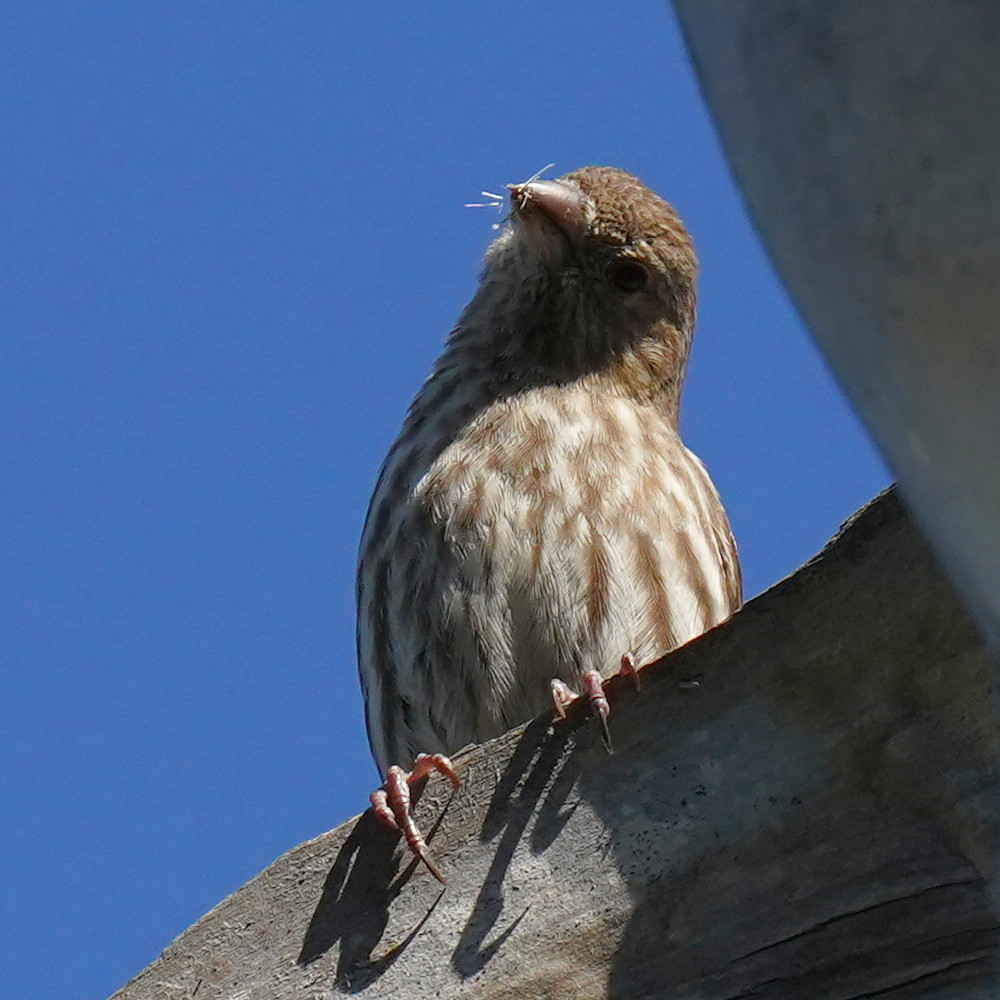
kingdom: Animalia
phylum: Chordata
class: Aves
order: Passeriformes
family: Fringillidae
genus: Haemorhous
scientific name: Haemorhous mexicanus
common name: House finch
